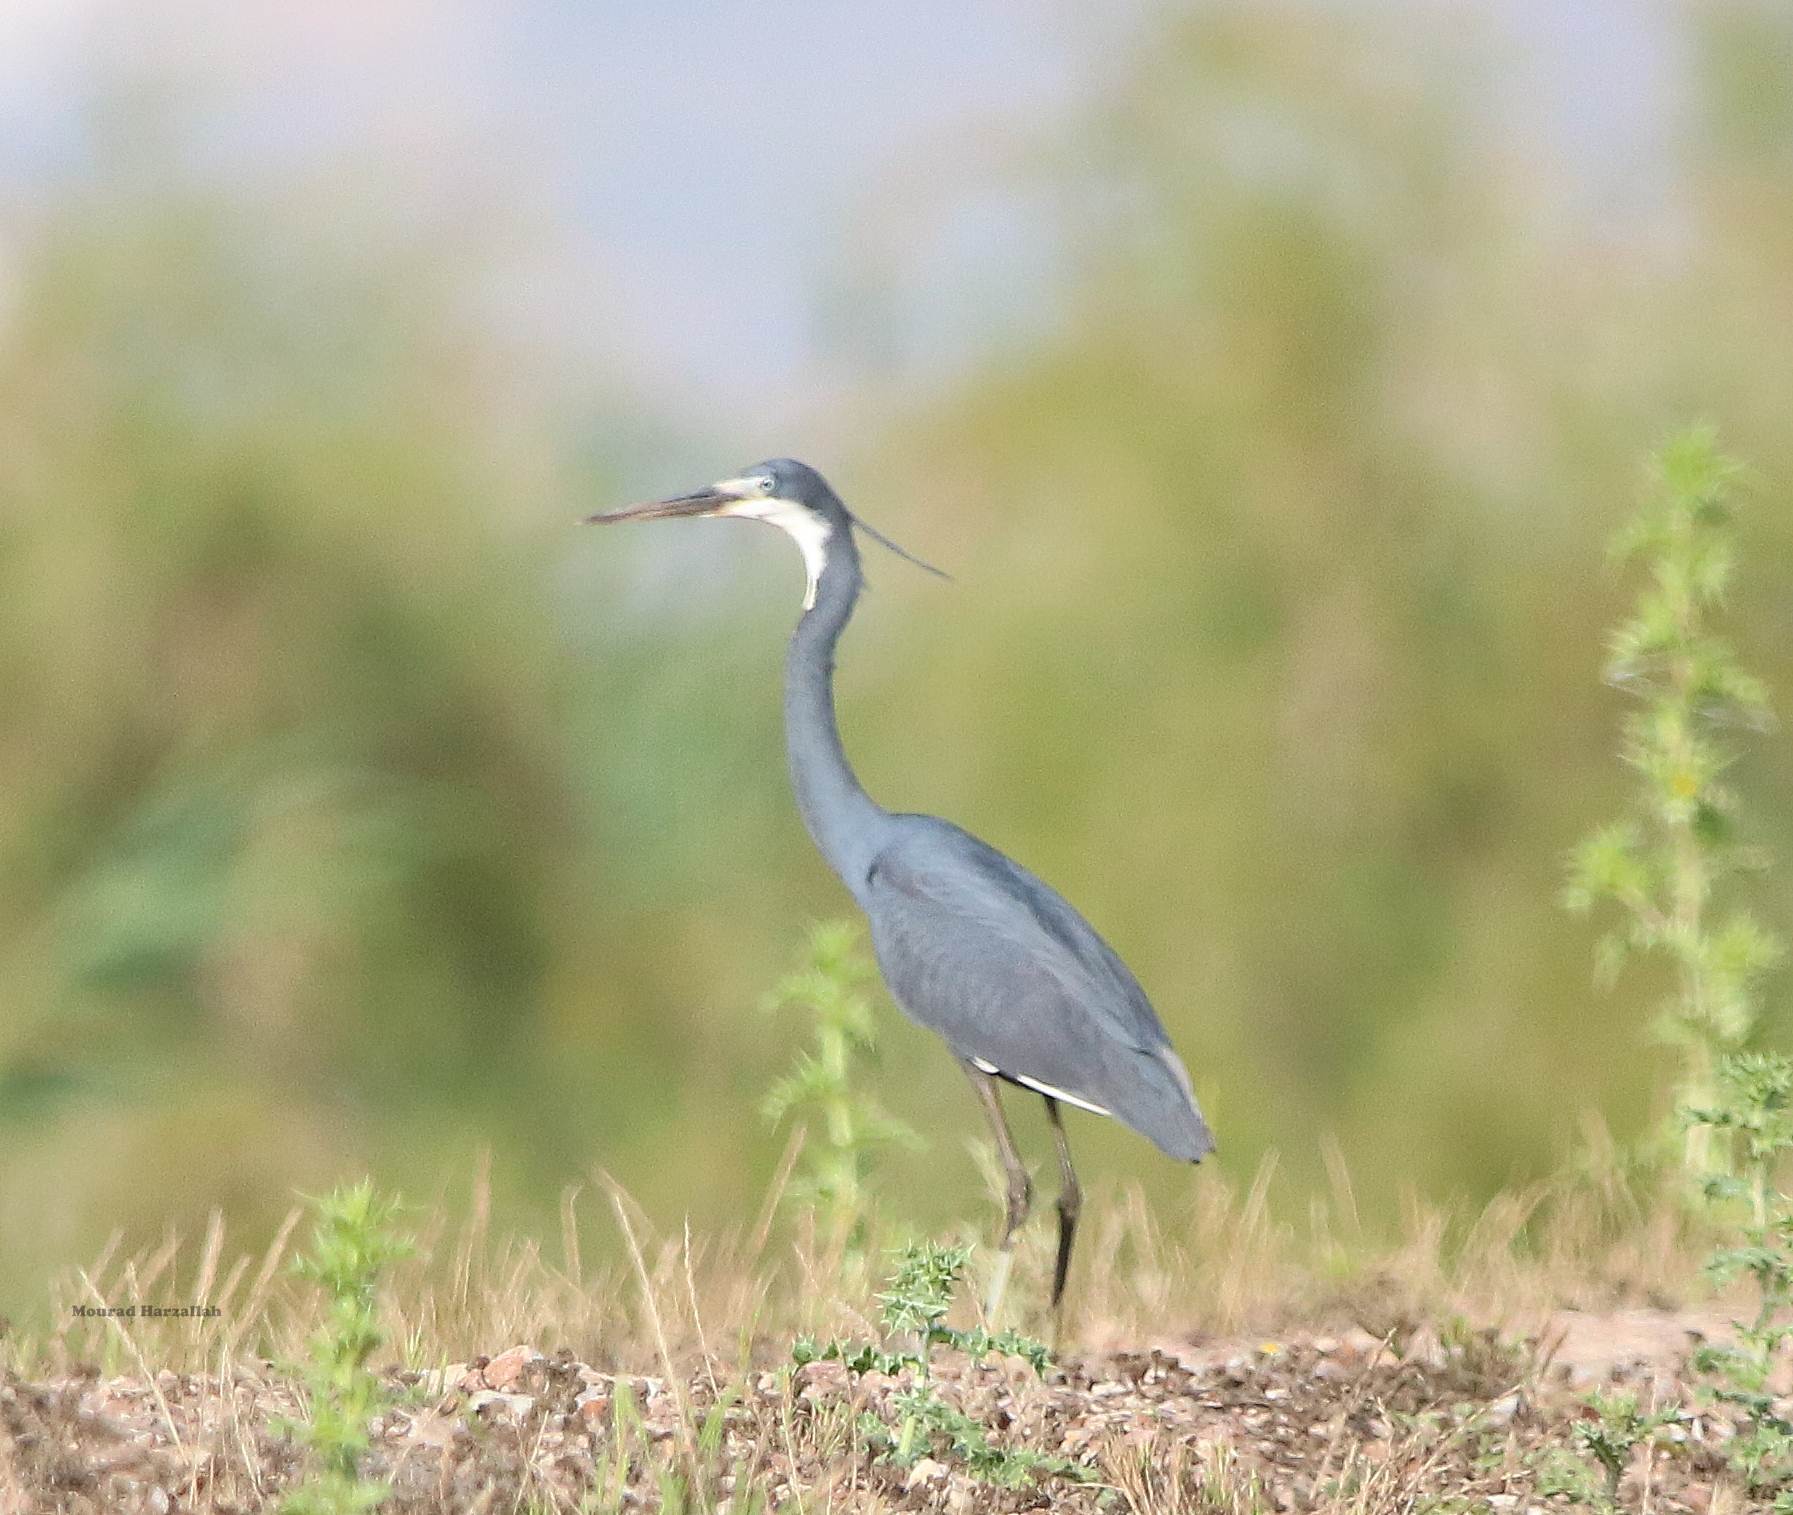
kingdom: Animalia
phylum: Chordata
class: Aves
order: Pelecaniformes
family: Ardeidae
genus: Egretta
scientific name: Egretta gularis
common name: Western reef-heron
